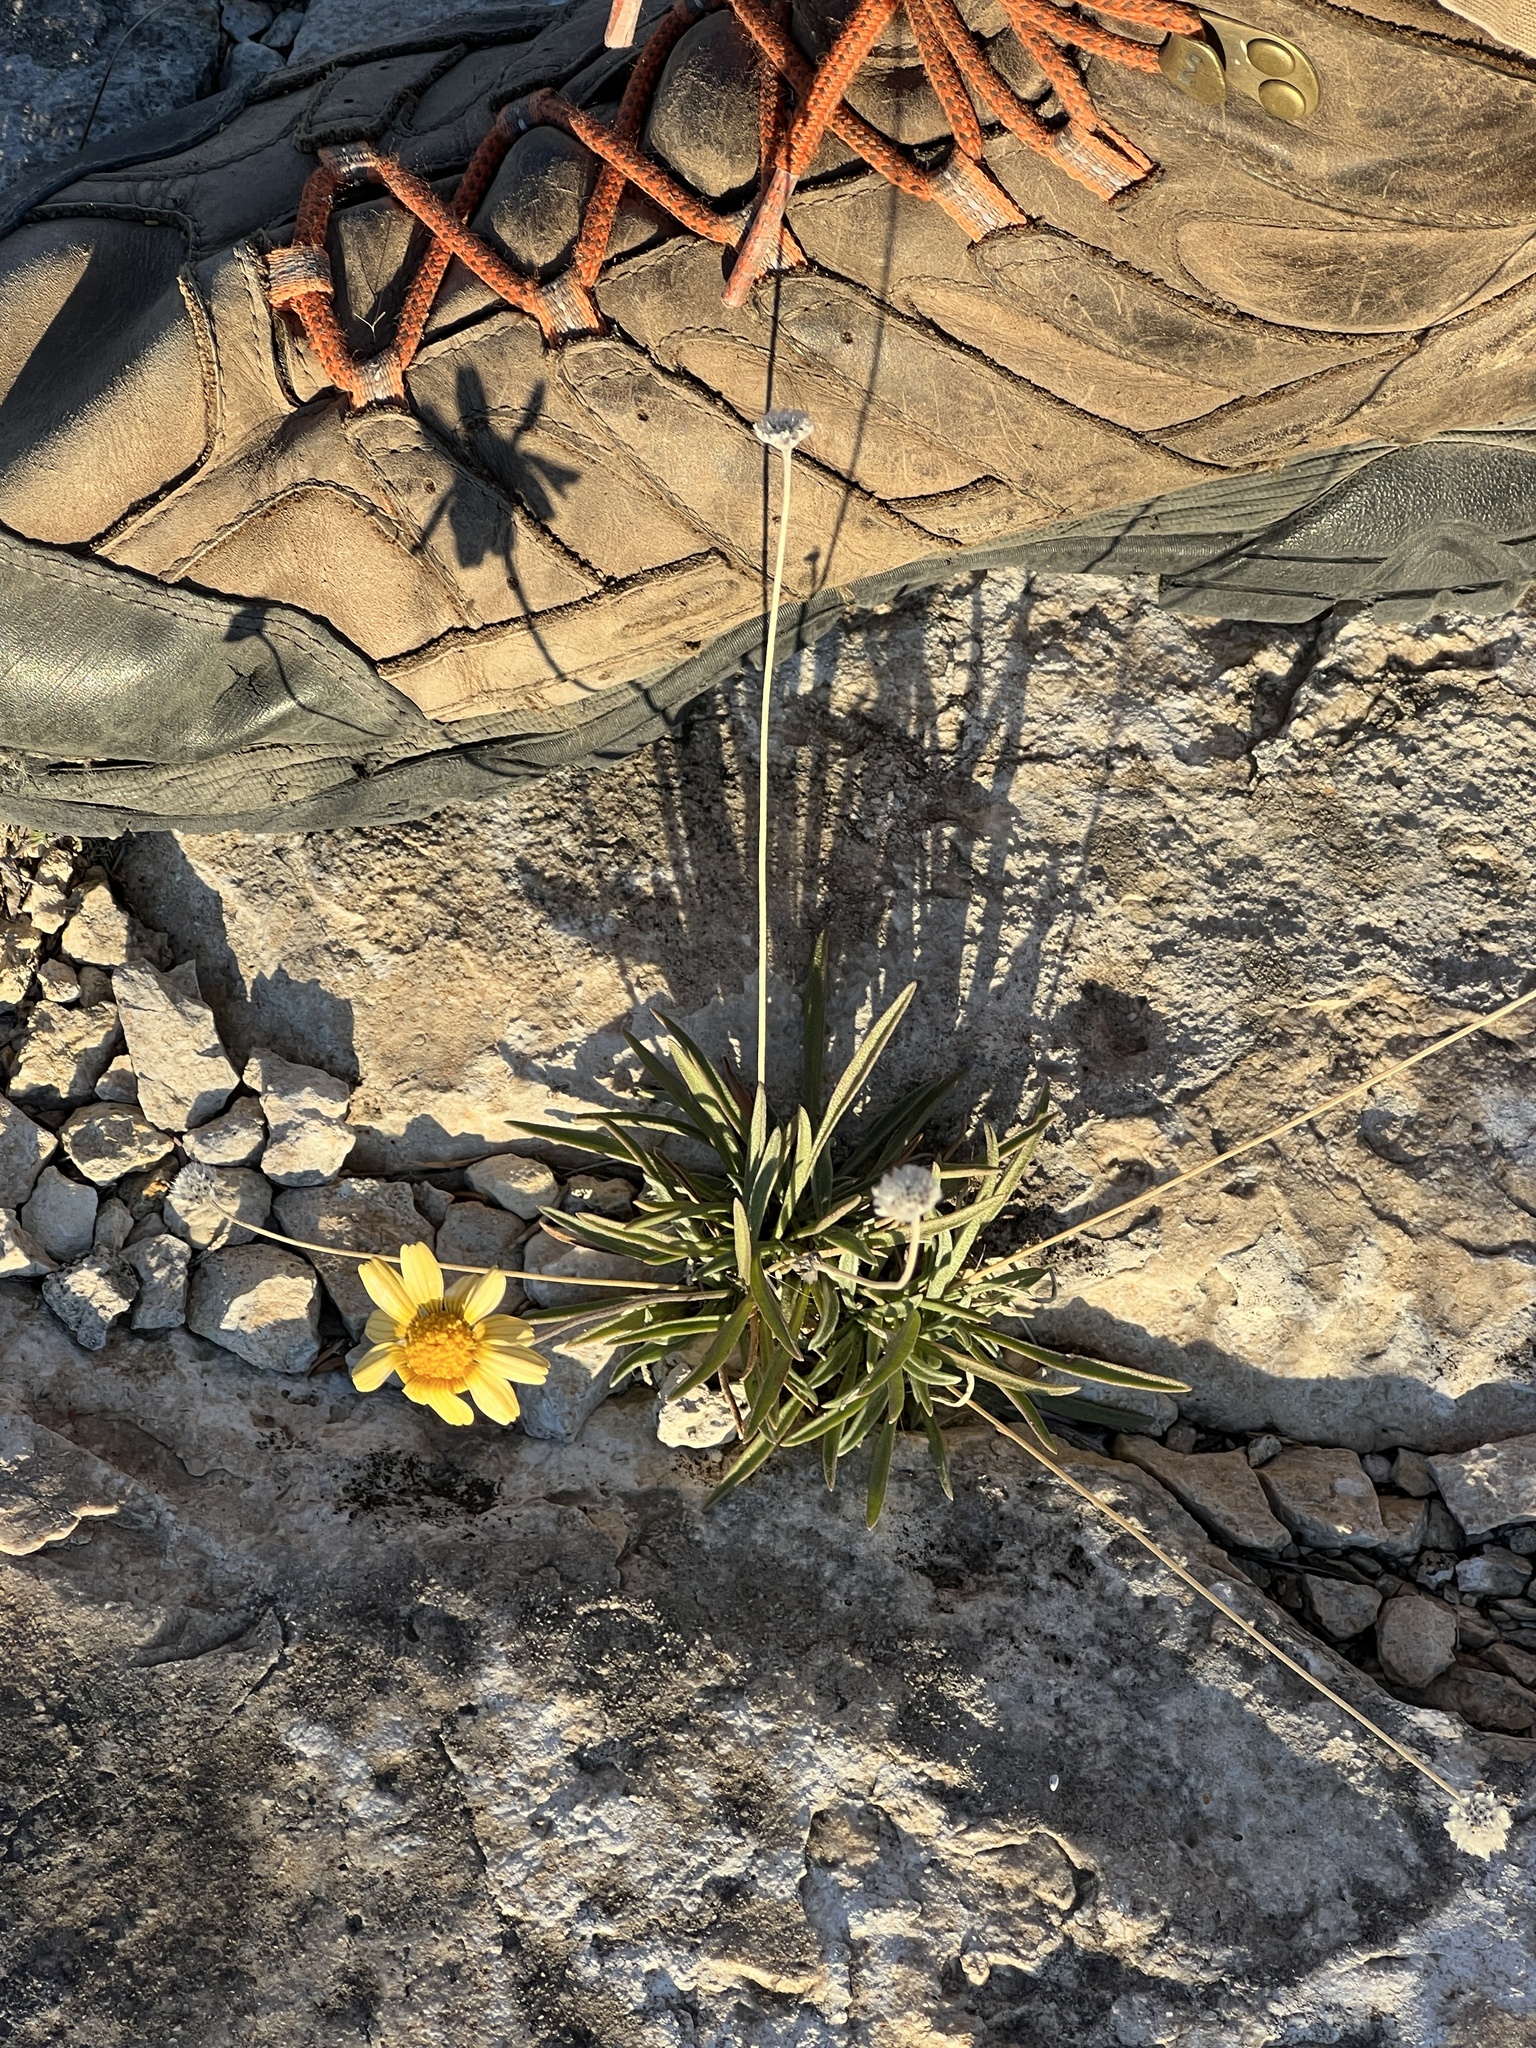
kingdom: Plantae
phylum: Tracheophyta
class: Magnoliopsida
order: Asterales
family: Asteraceae
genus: Tetraneuris
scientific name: Tetraneuris scaposa
